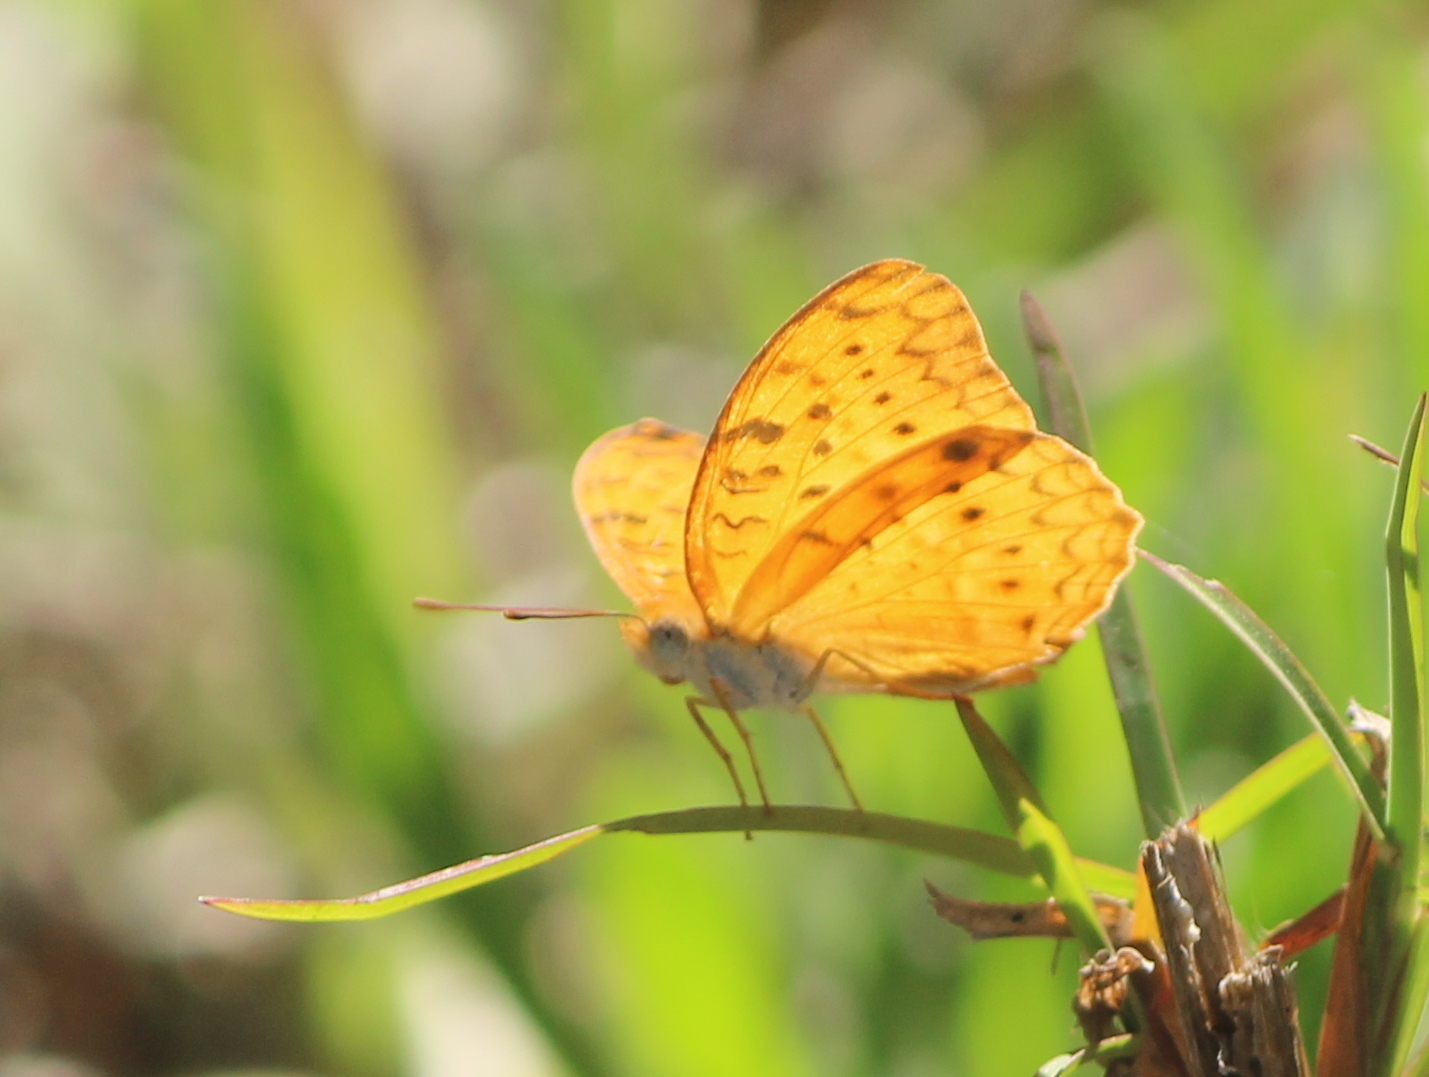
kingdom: Animalia
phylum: Arthropoda
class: Insecta
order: Lepidoptera
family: Nymphalidae
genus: Phalanta
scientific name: Phalanta phalantha
